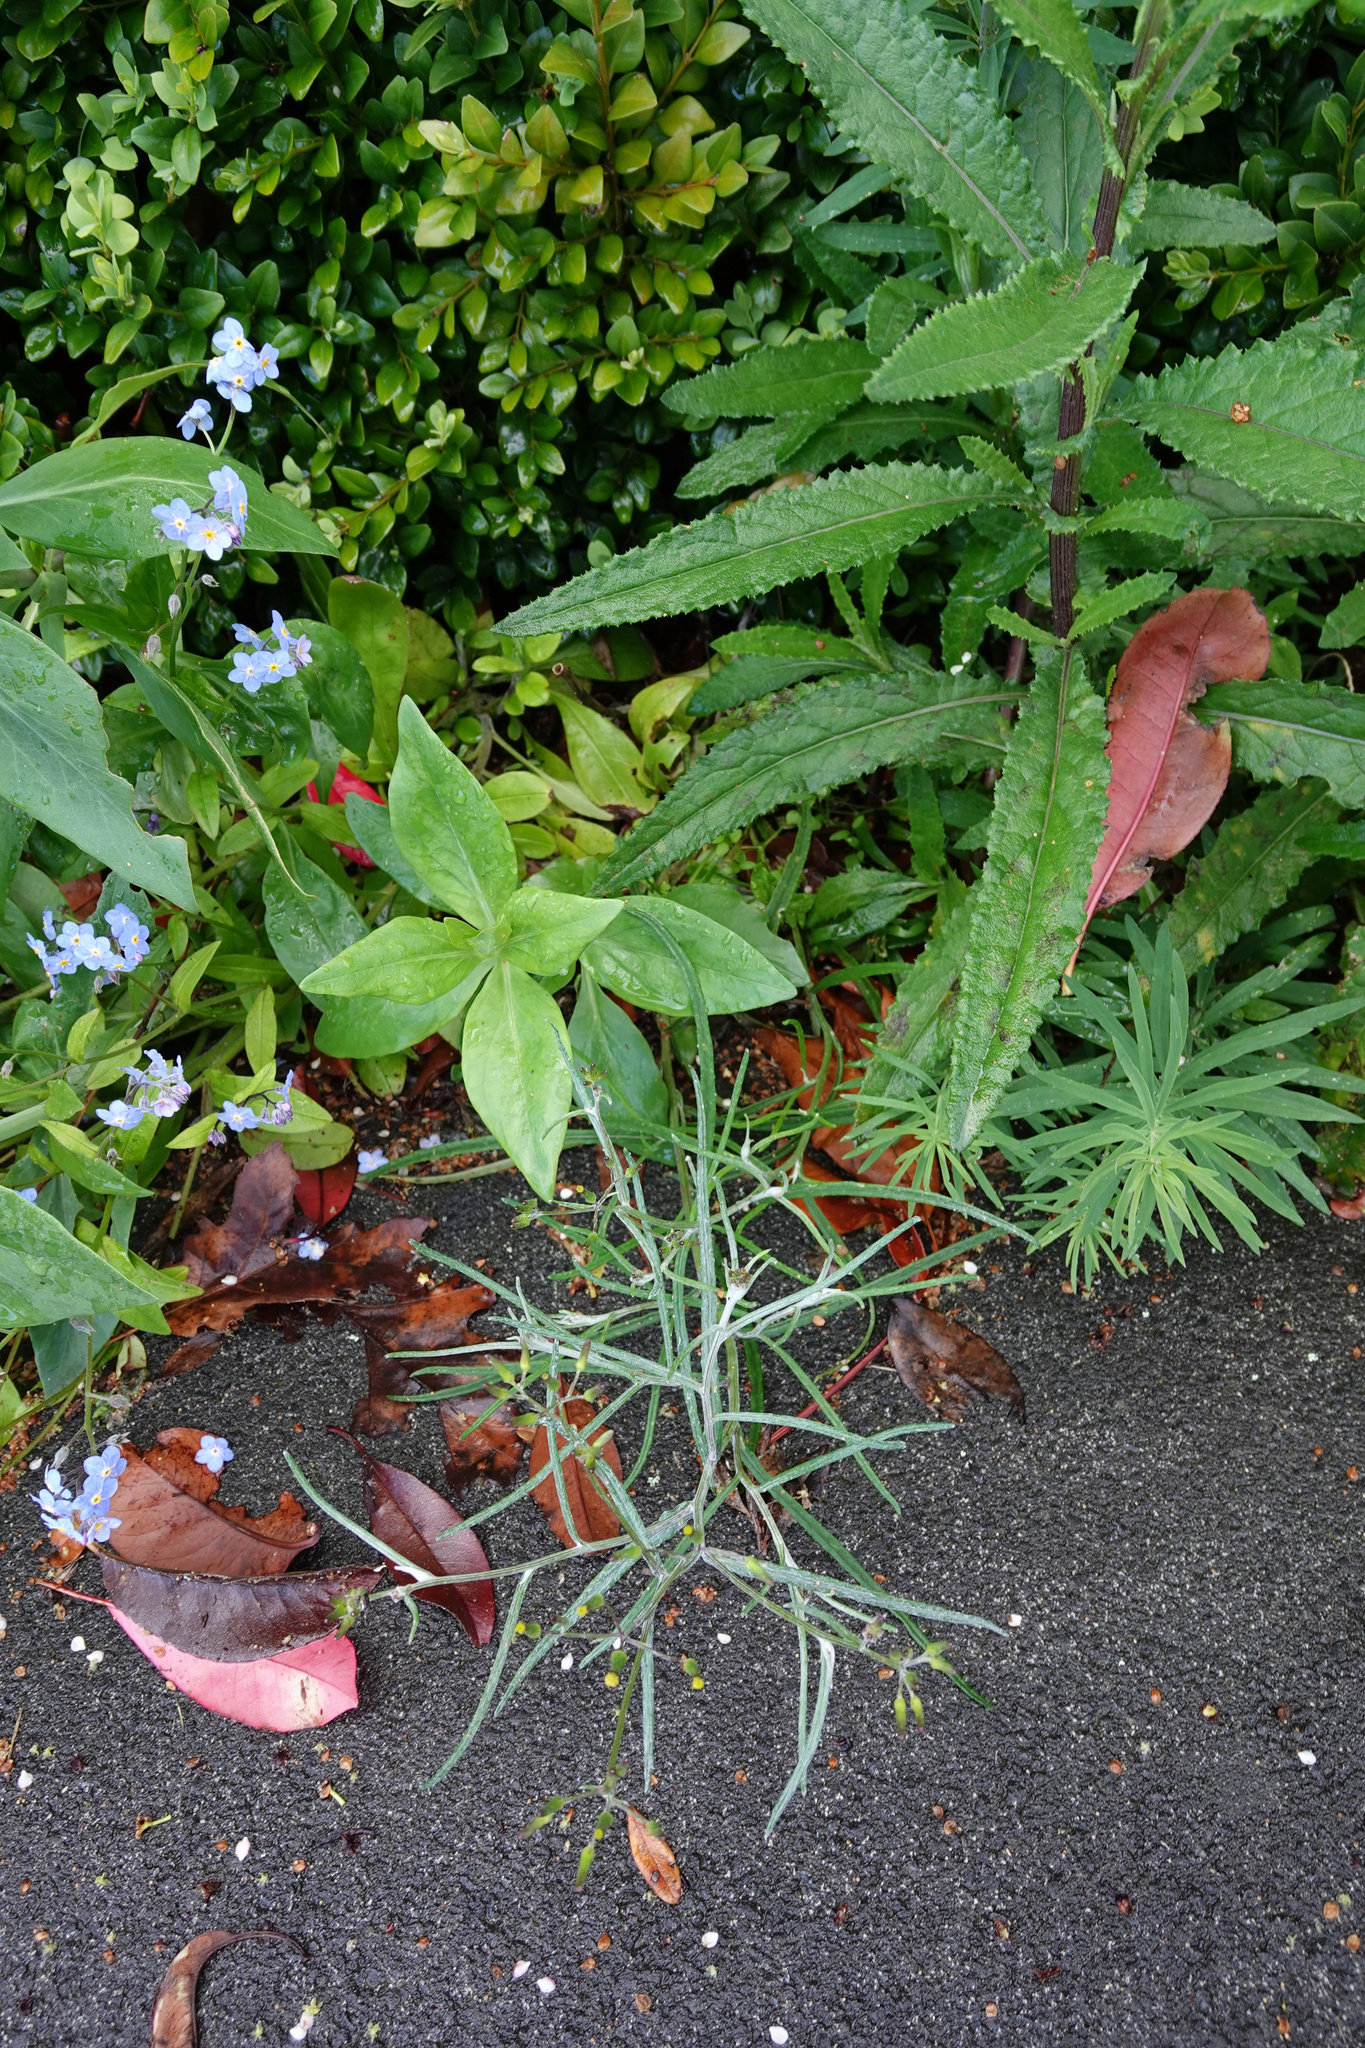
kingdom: Plantae
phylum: Tracheophyta
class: Magnoliopsida
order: Asterales
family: Asteraceae
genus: Senecio
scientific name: Senecio quadridentatus
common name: Cotton fireweed
